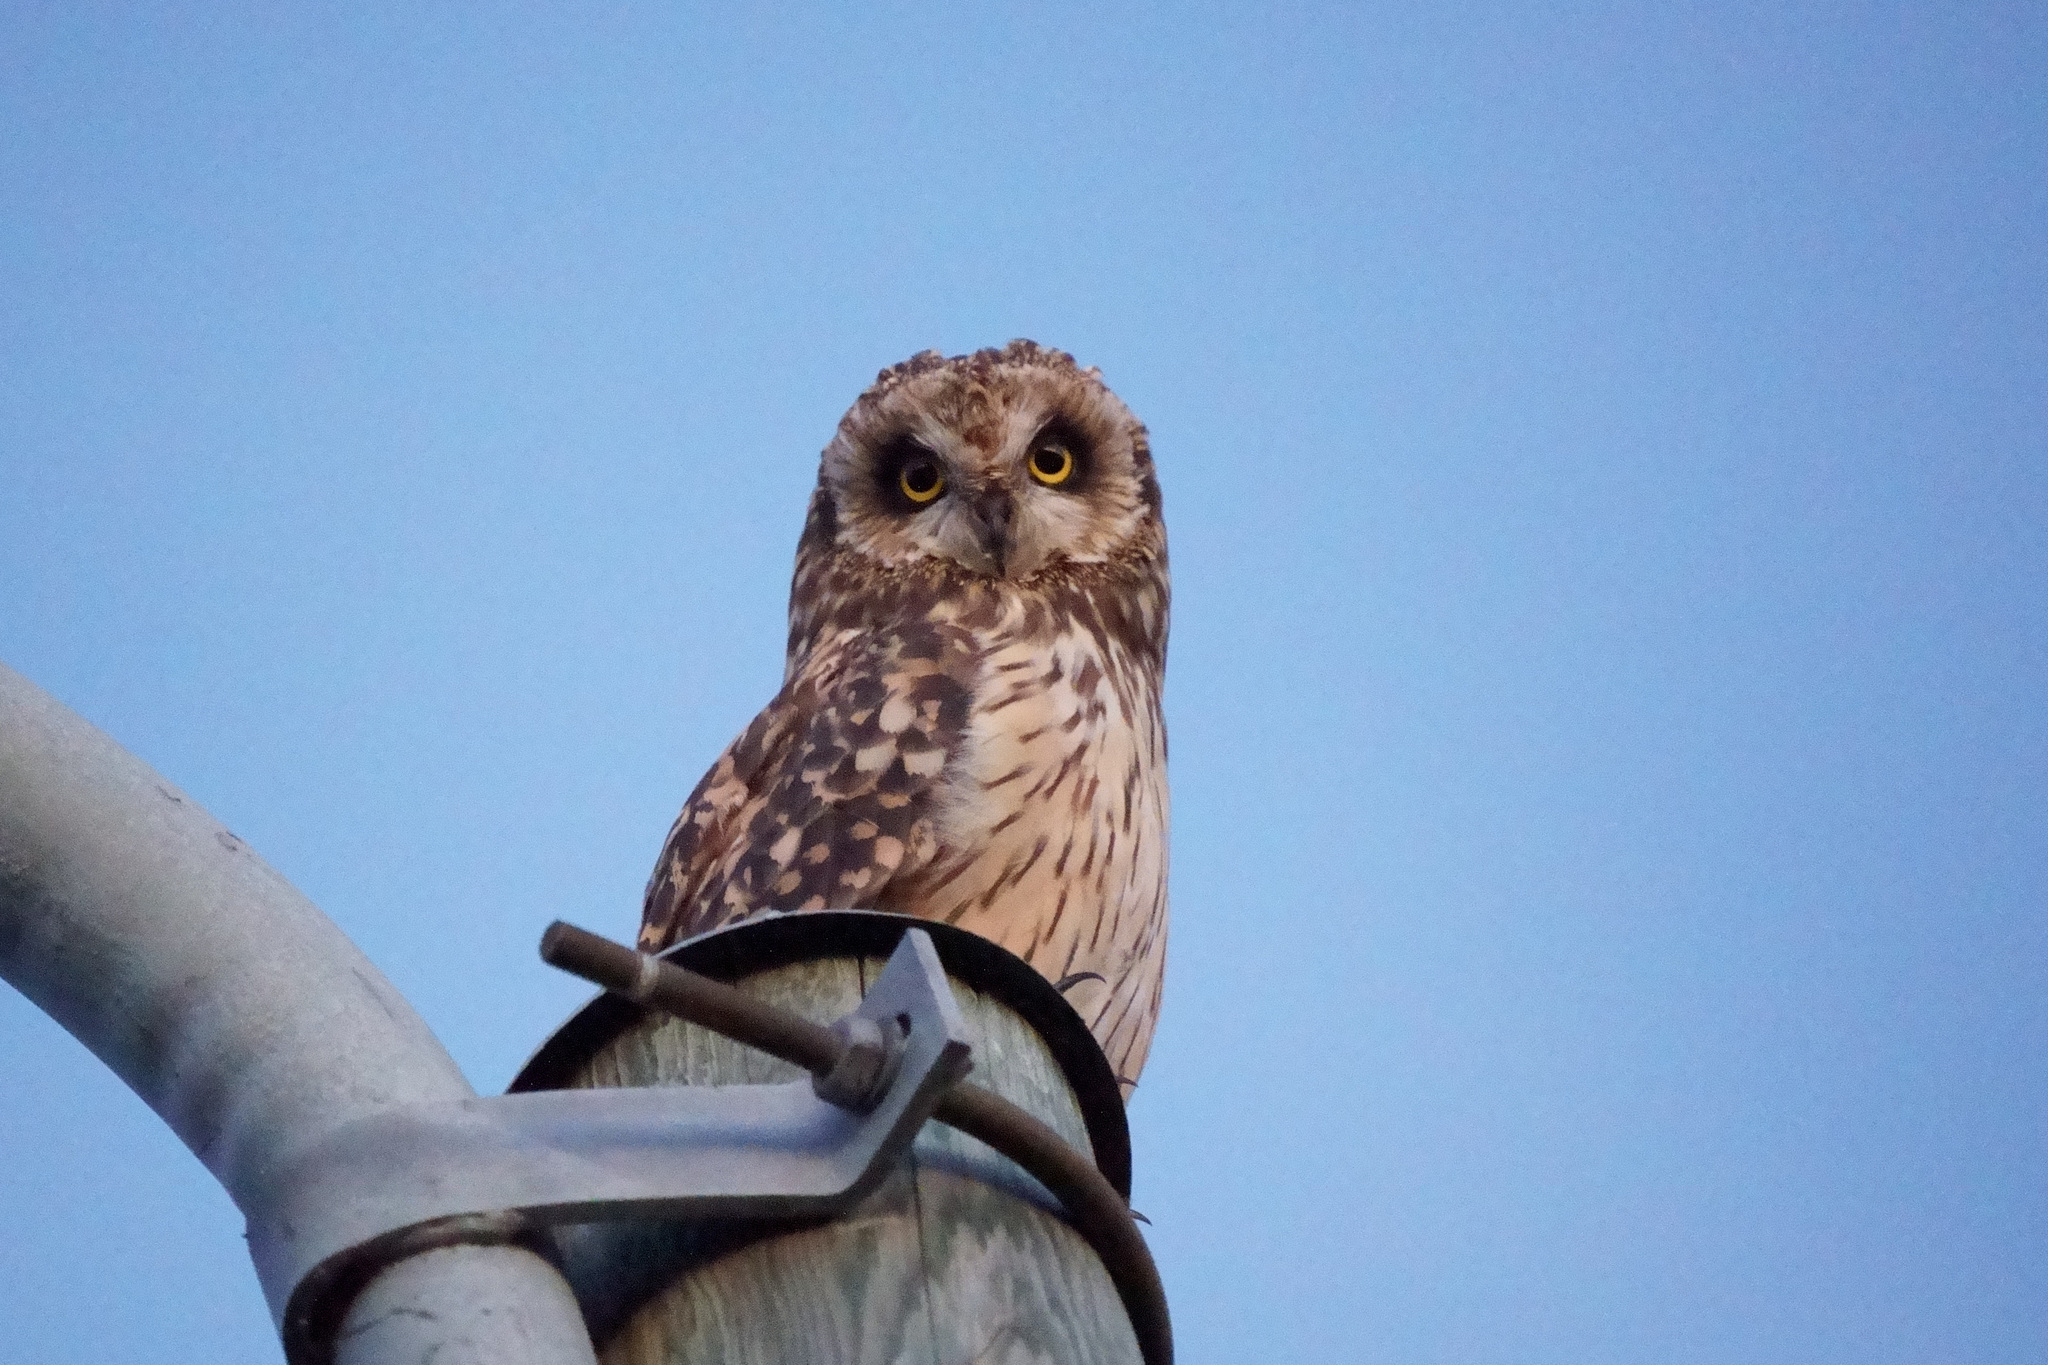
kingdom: Animalia
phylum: Chordata
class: Aves
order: Strigiformes
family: Strigidae
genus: Asio
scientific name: Asio flammeus
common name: Short-eared owl
